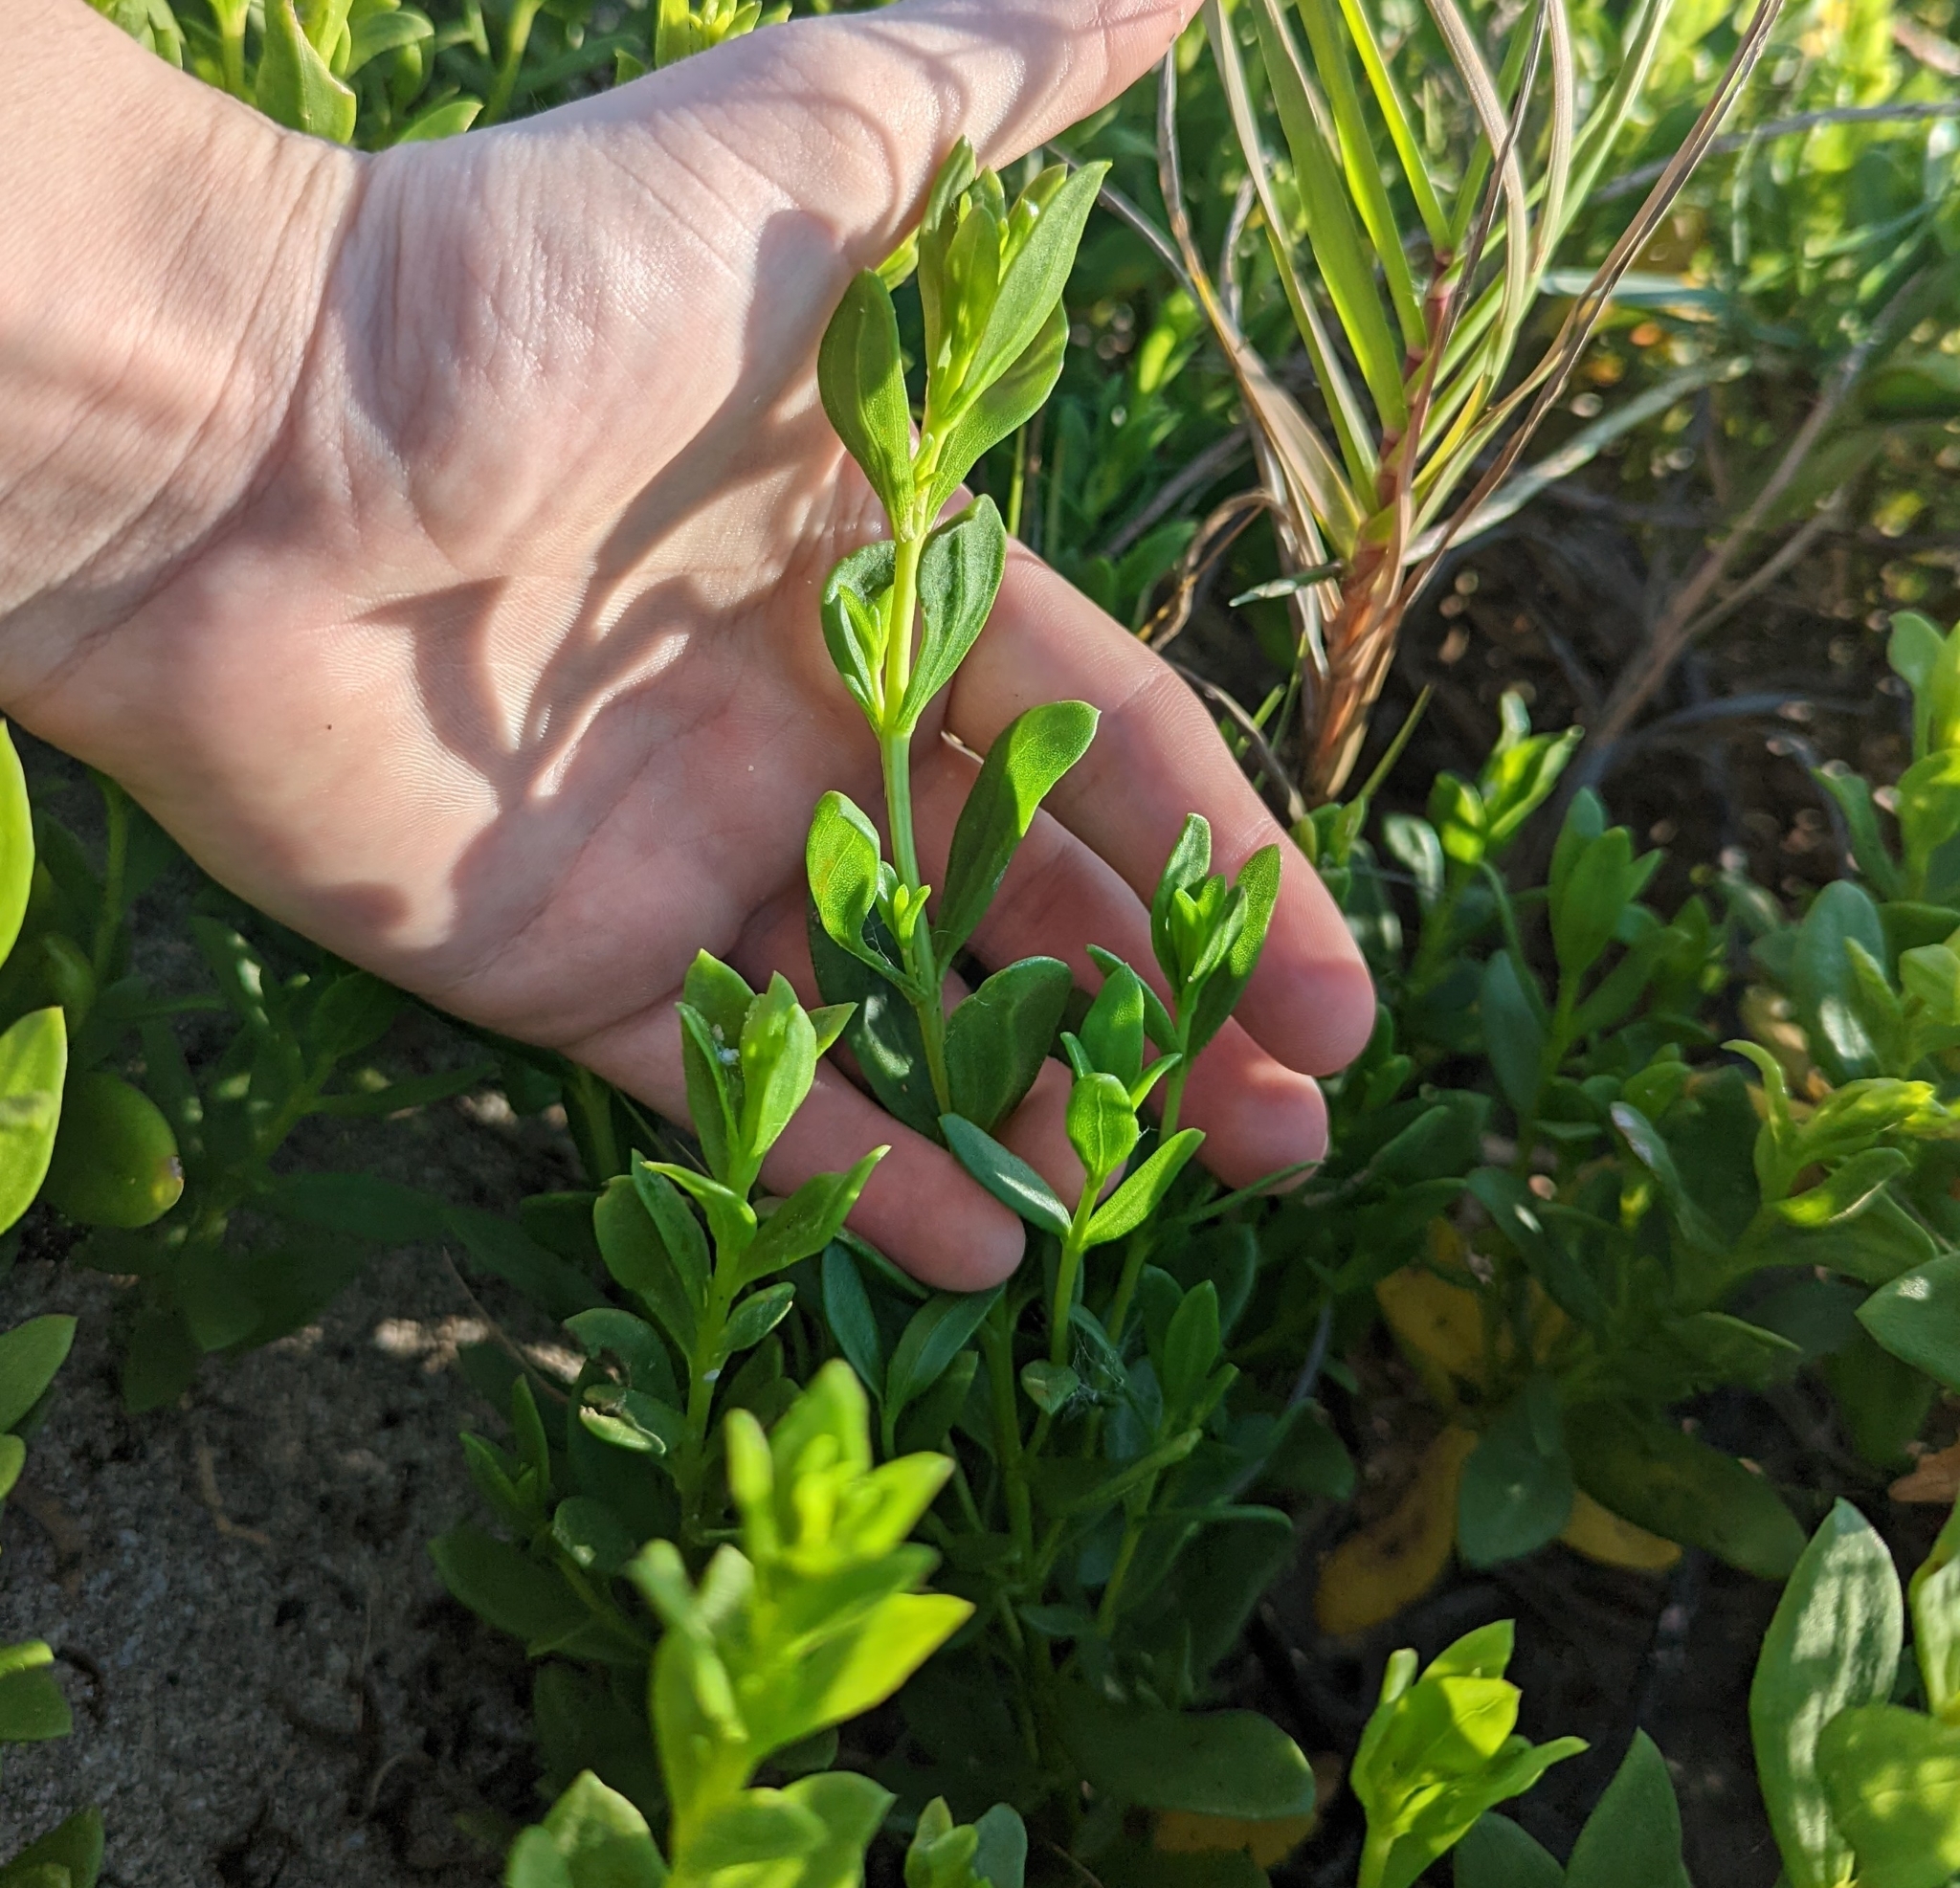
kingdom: Plantae
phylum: Tracheophyta
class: Magnoliopsida
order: Asterales
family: Asteraceae
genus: Iva
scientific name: Iva imbricata
